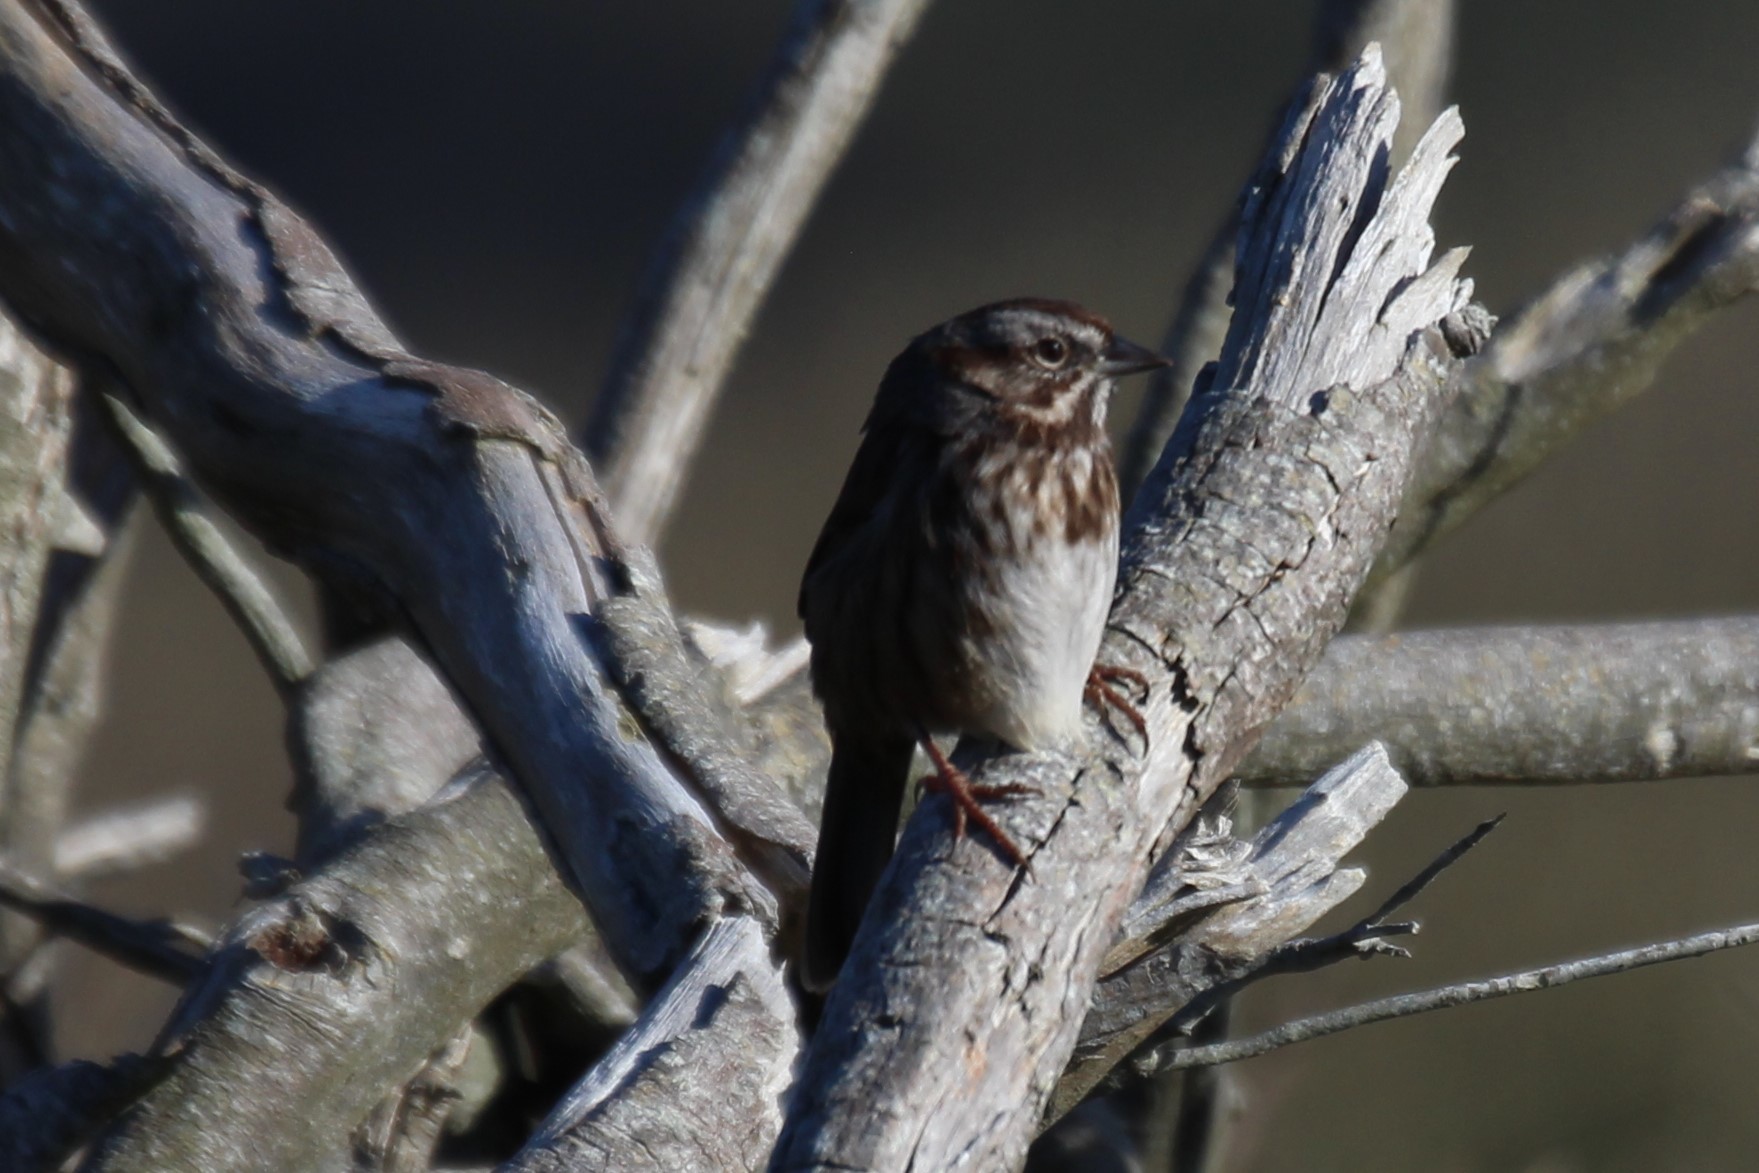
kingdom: Animalia
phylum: Chordata
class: Aves
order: Passeriformes
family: Passerellidae
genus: Melospiza
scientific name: Melospiza melodia
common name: Song sparrow
